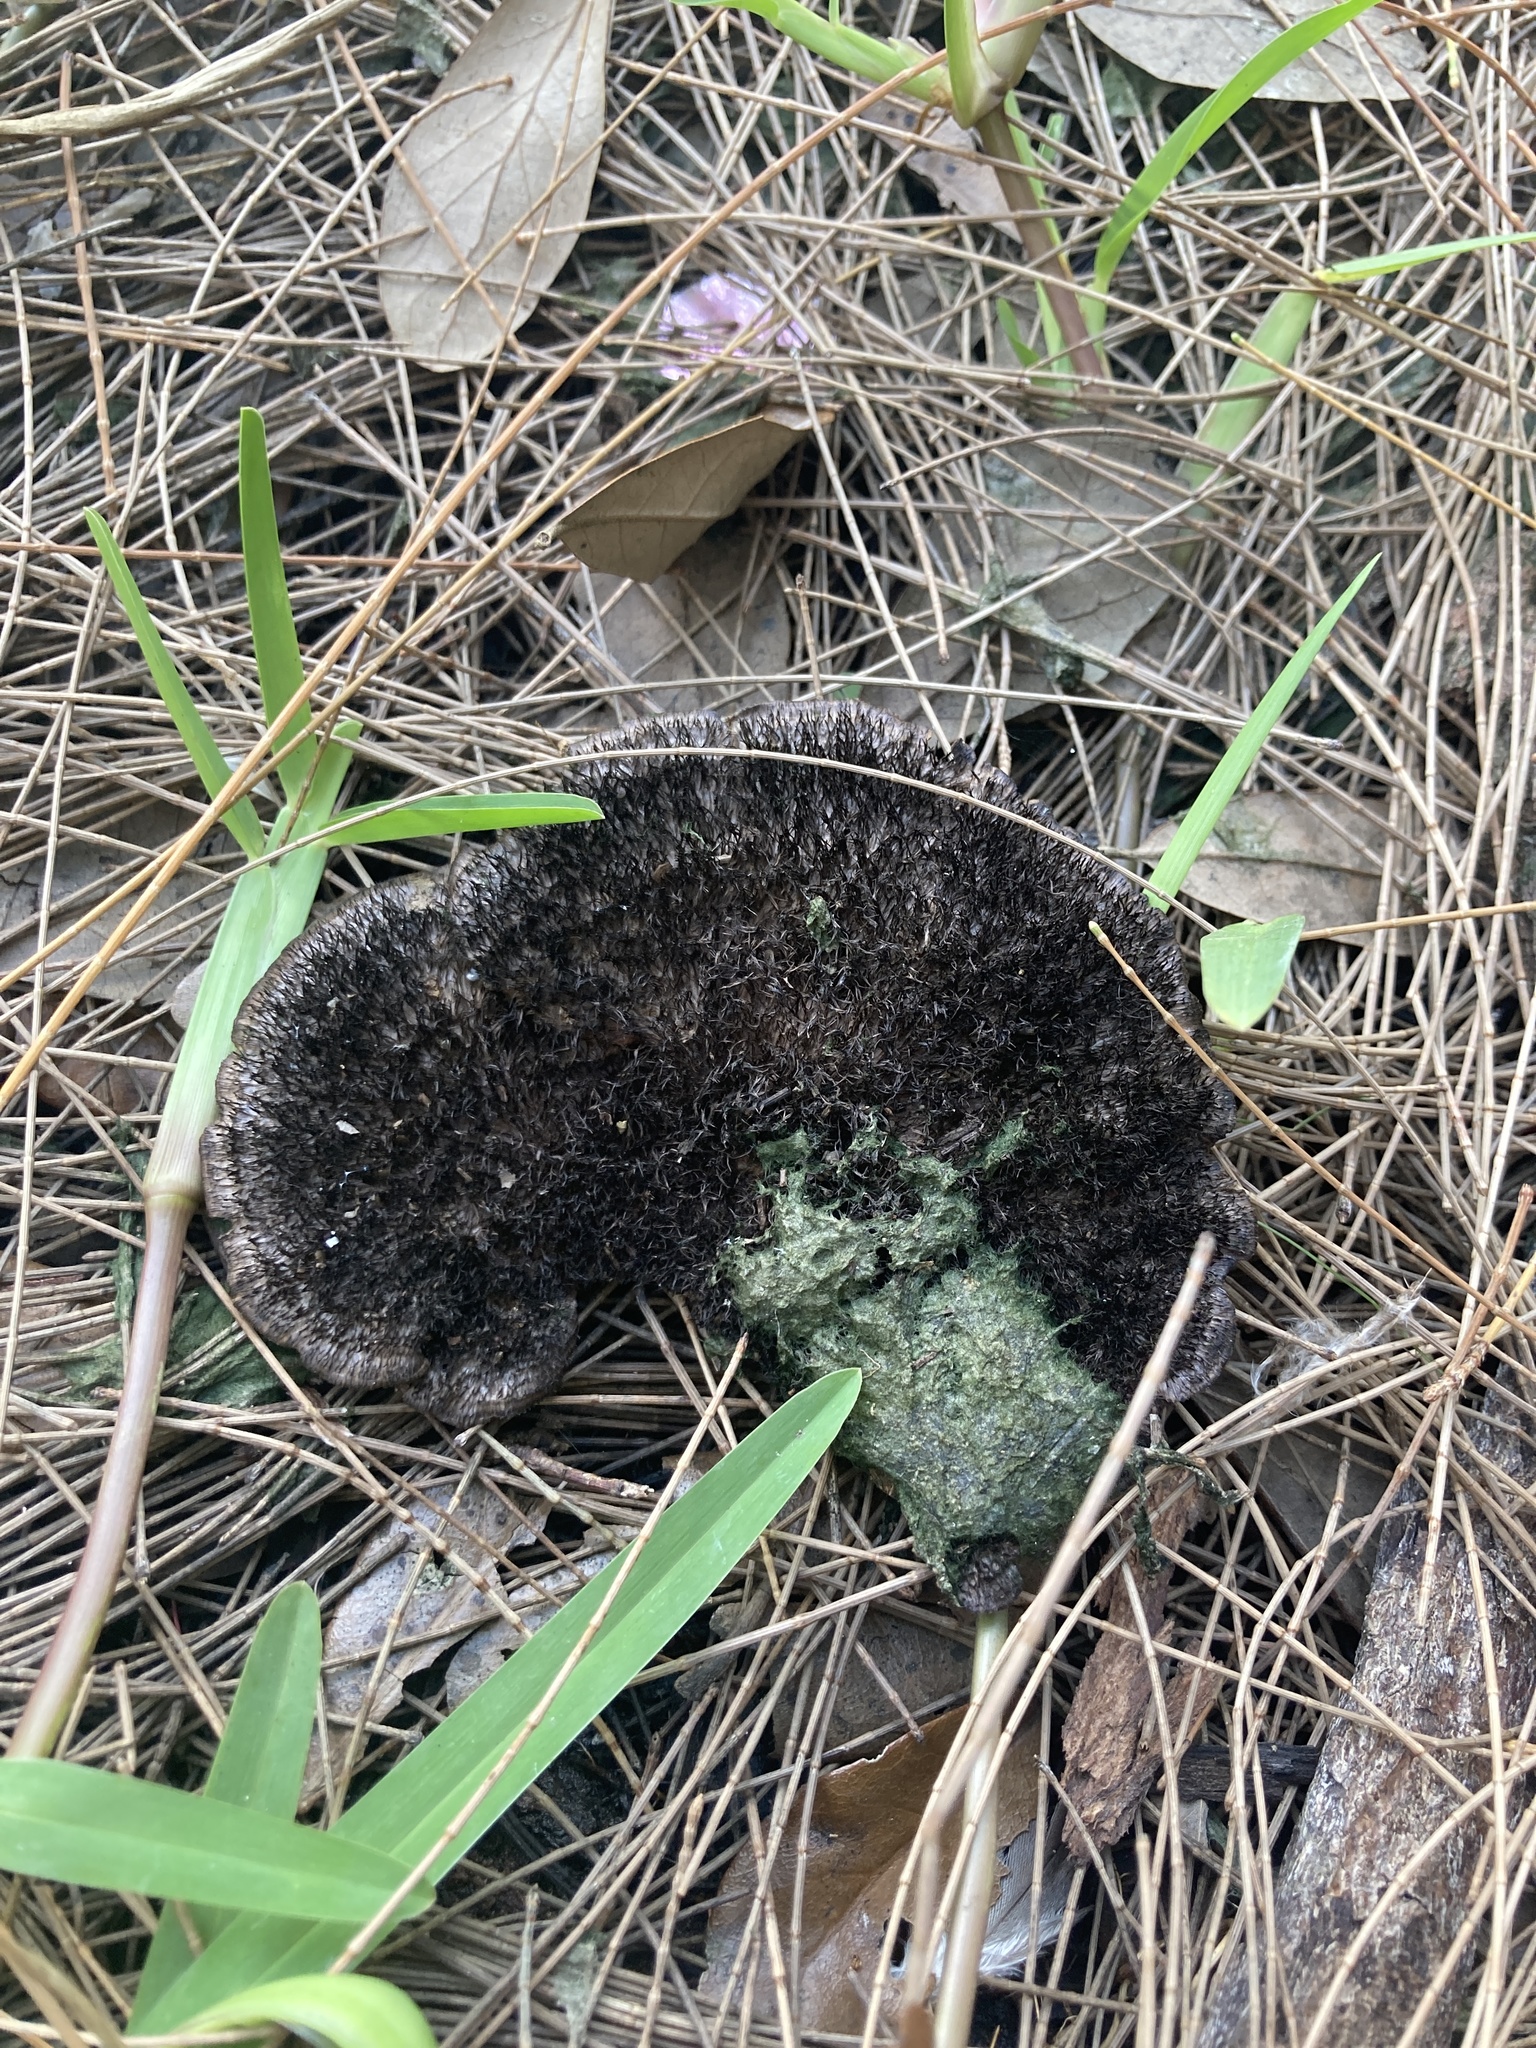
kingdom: Fungi
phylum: Basidiomycota
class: Agaricomycetes
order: Polyporales
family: Cerrenaceae
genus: Cerrena
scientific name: Cerrena hydnoides
